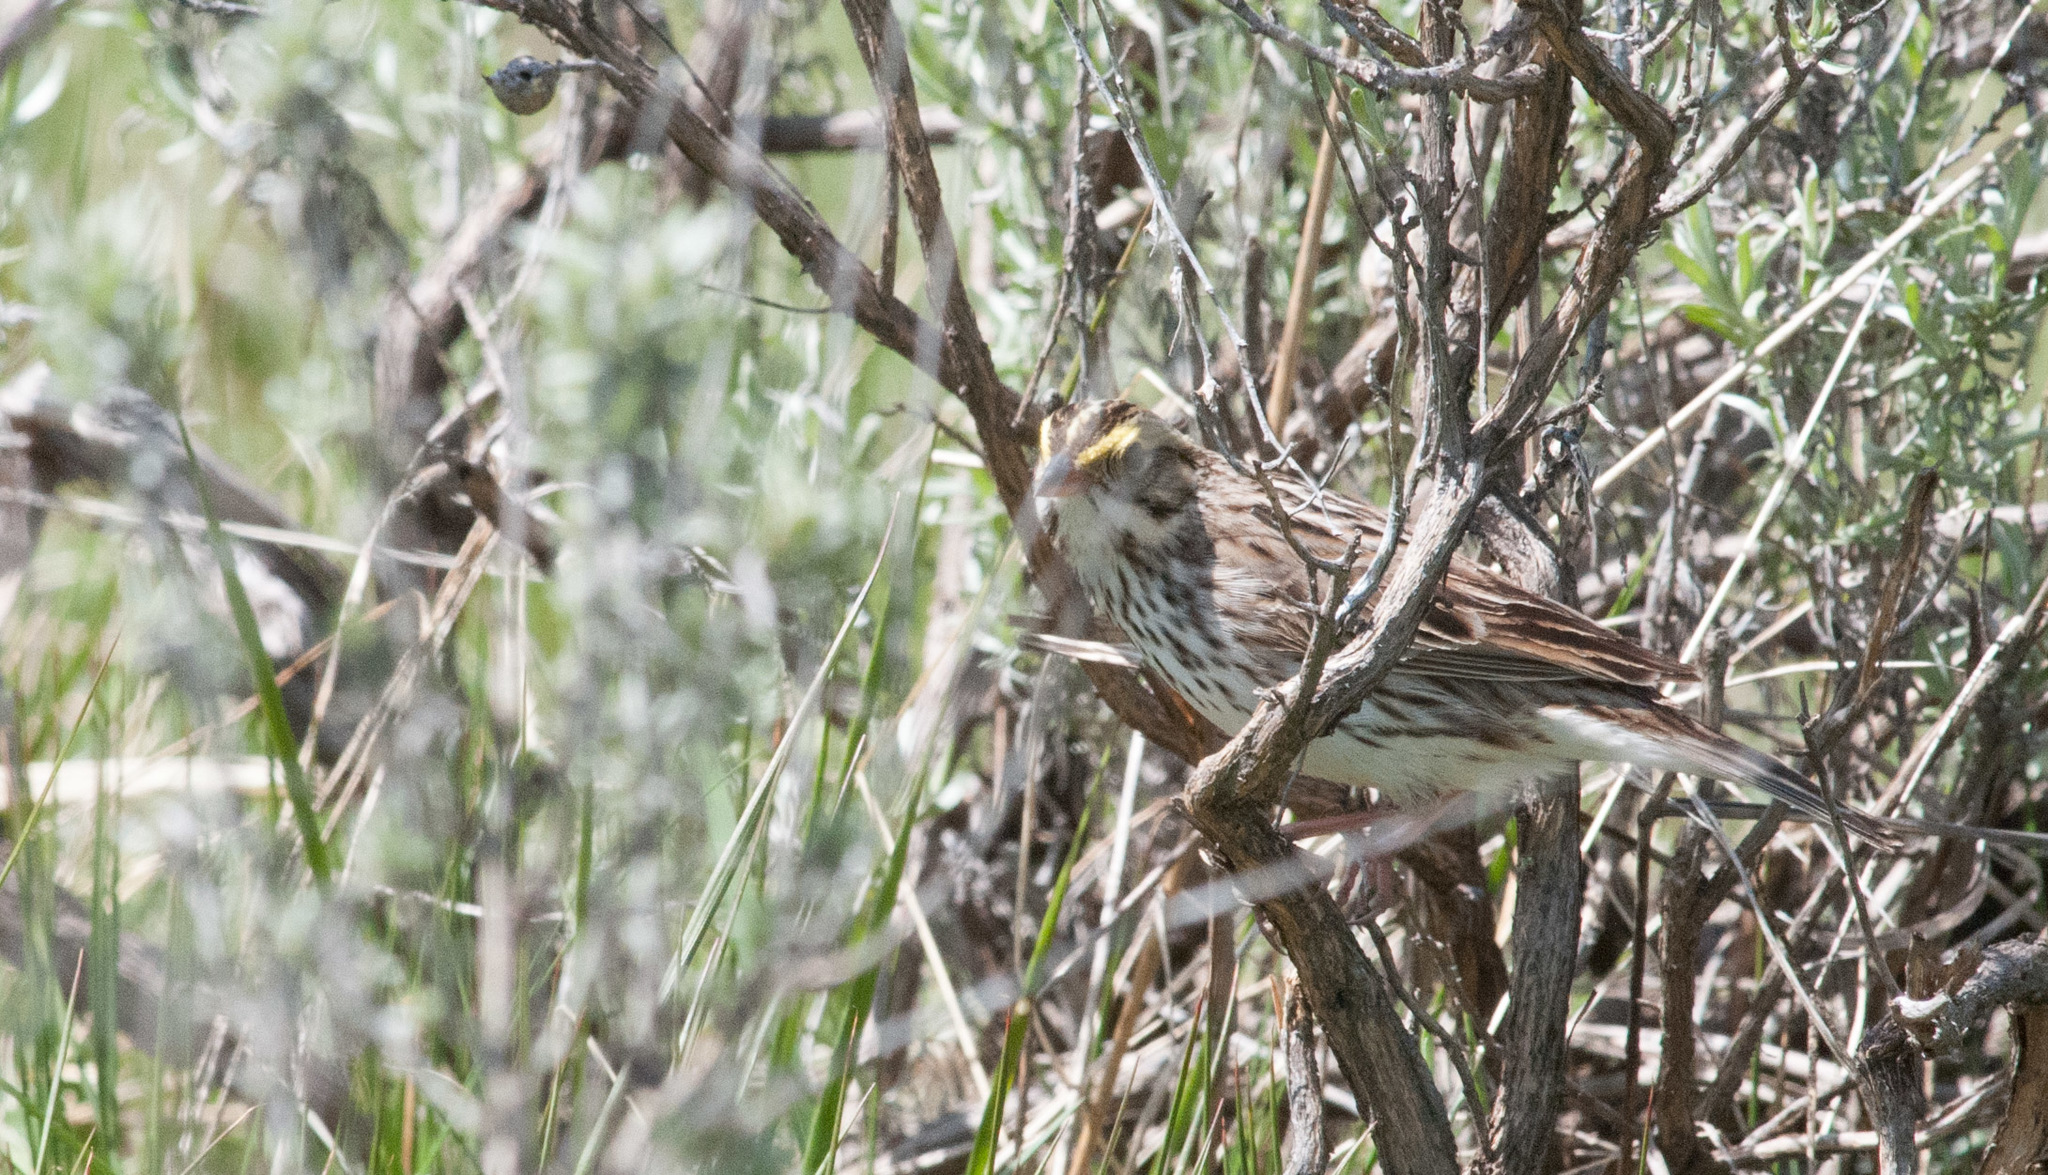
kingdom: Animalia
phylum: Chordata
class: Aves
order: Passeriformes
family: Passerellidae
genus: Passerculus
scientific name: Passerculus sandwichensis
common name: Savannah sparrow
